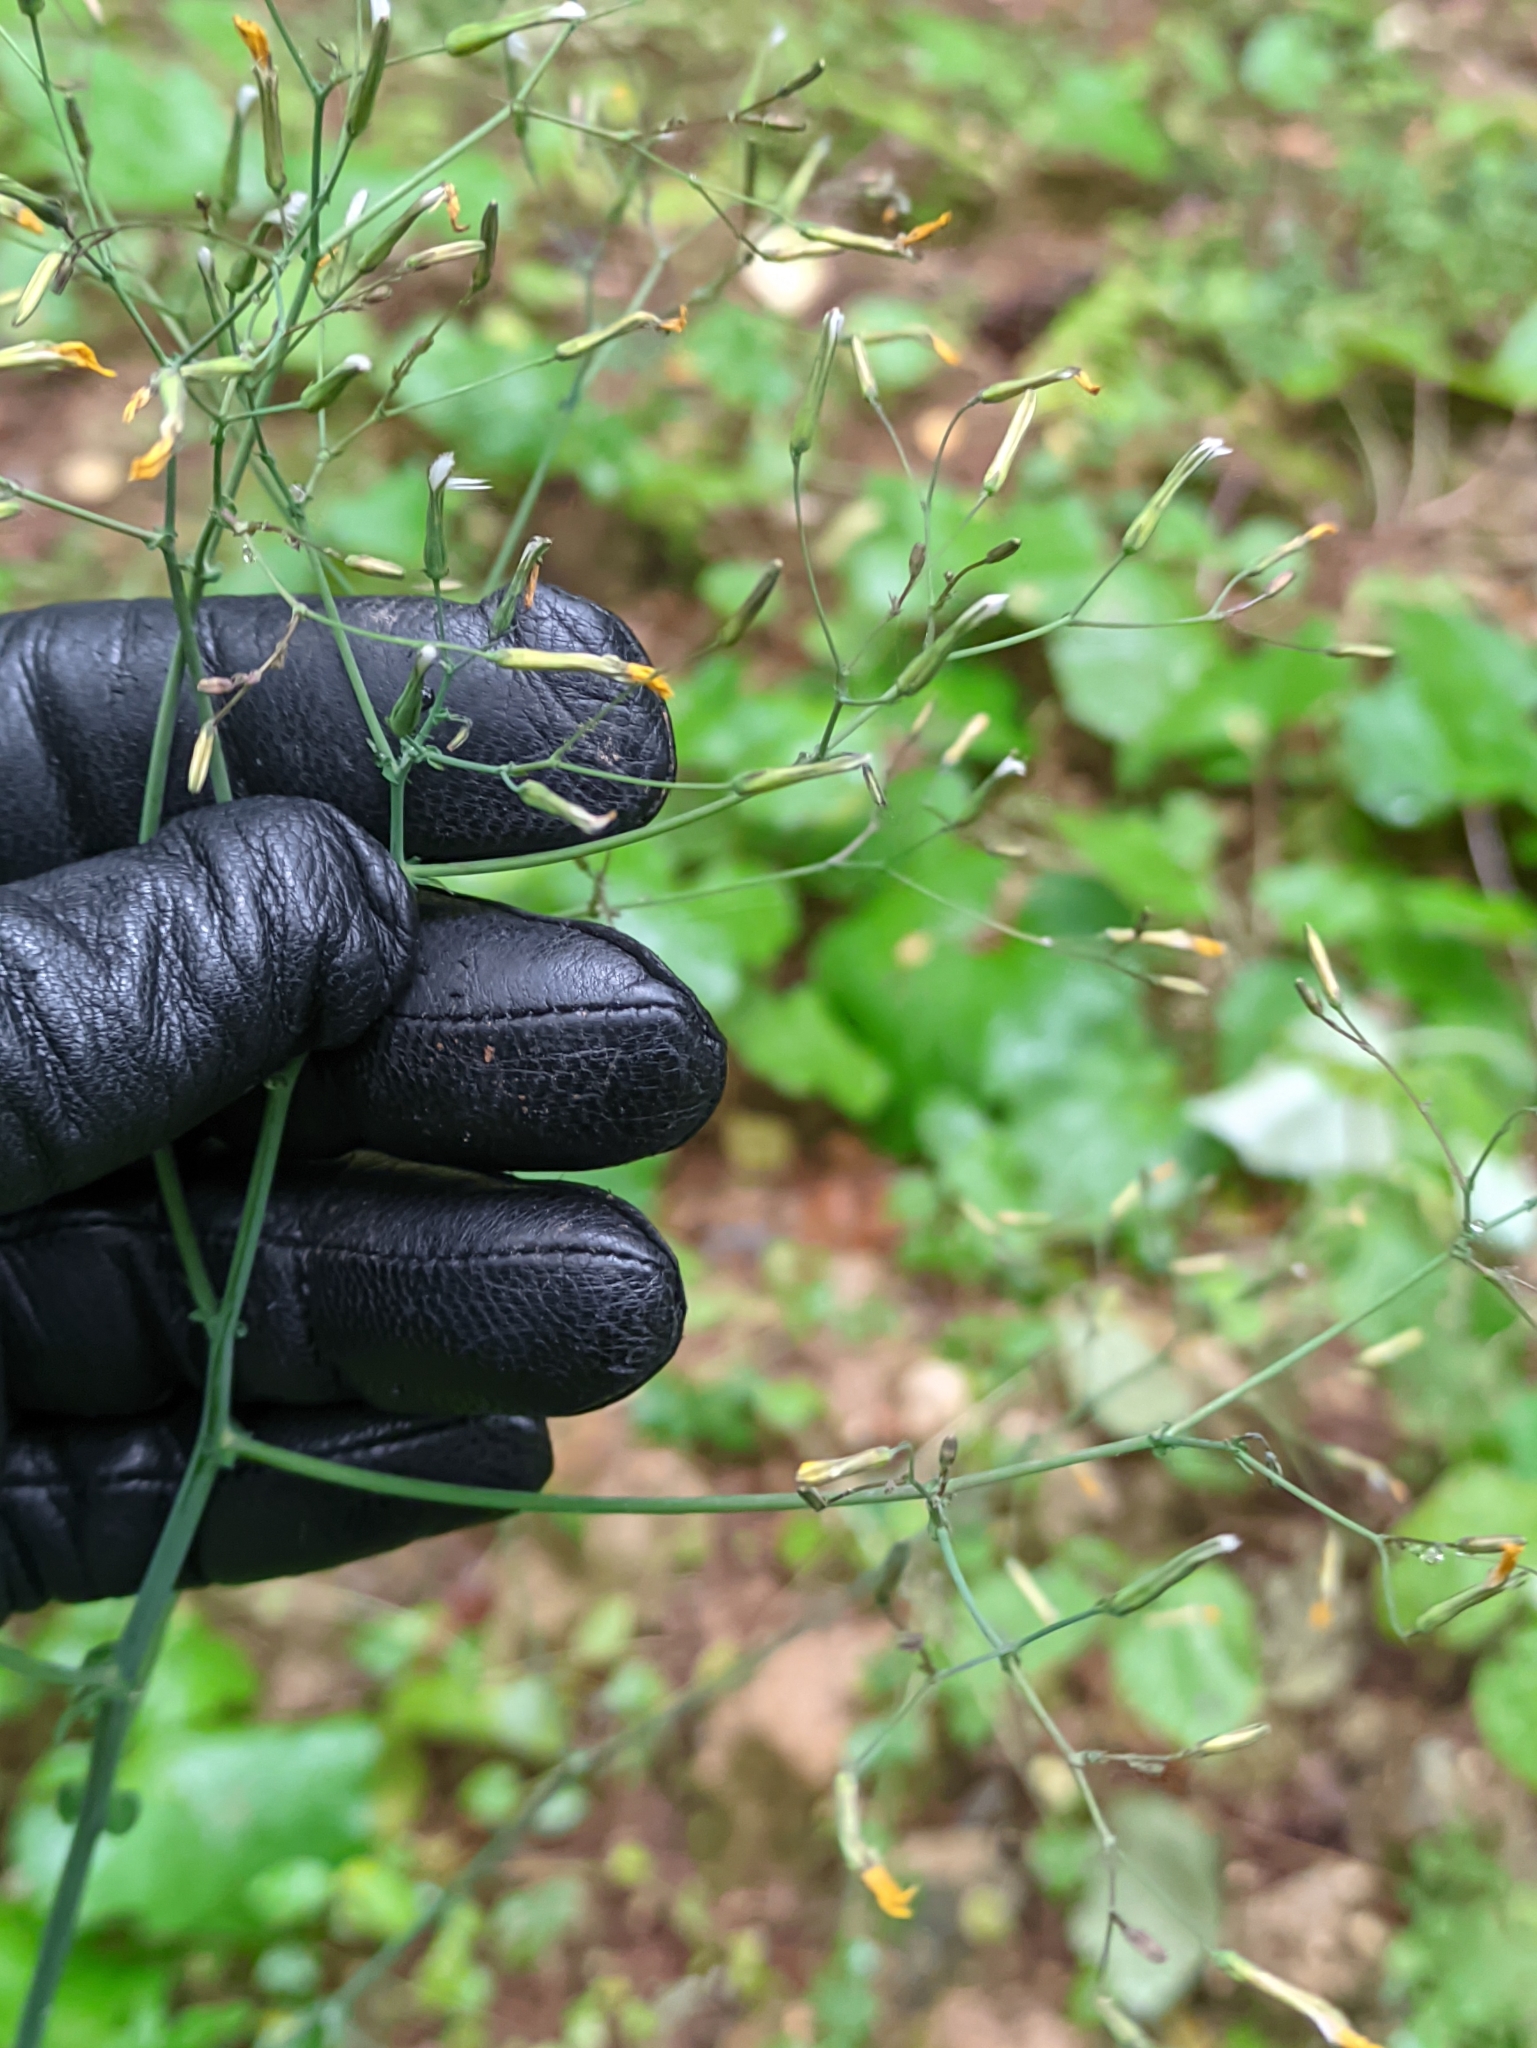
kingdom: Plantae
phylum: Tracheophyta
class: Magnoliopsida
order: Asterales
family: Asteraceae
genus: Mycelis
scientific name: Mycelis muralis
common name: Wall lettuce
